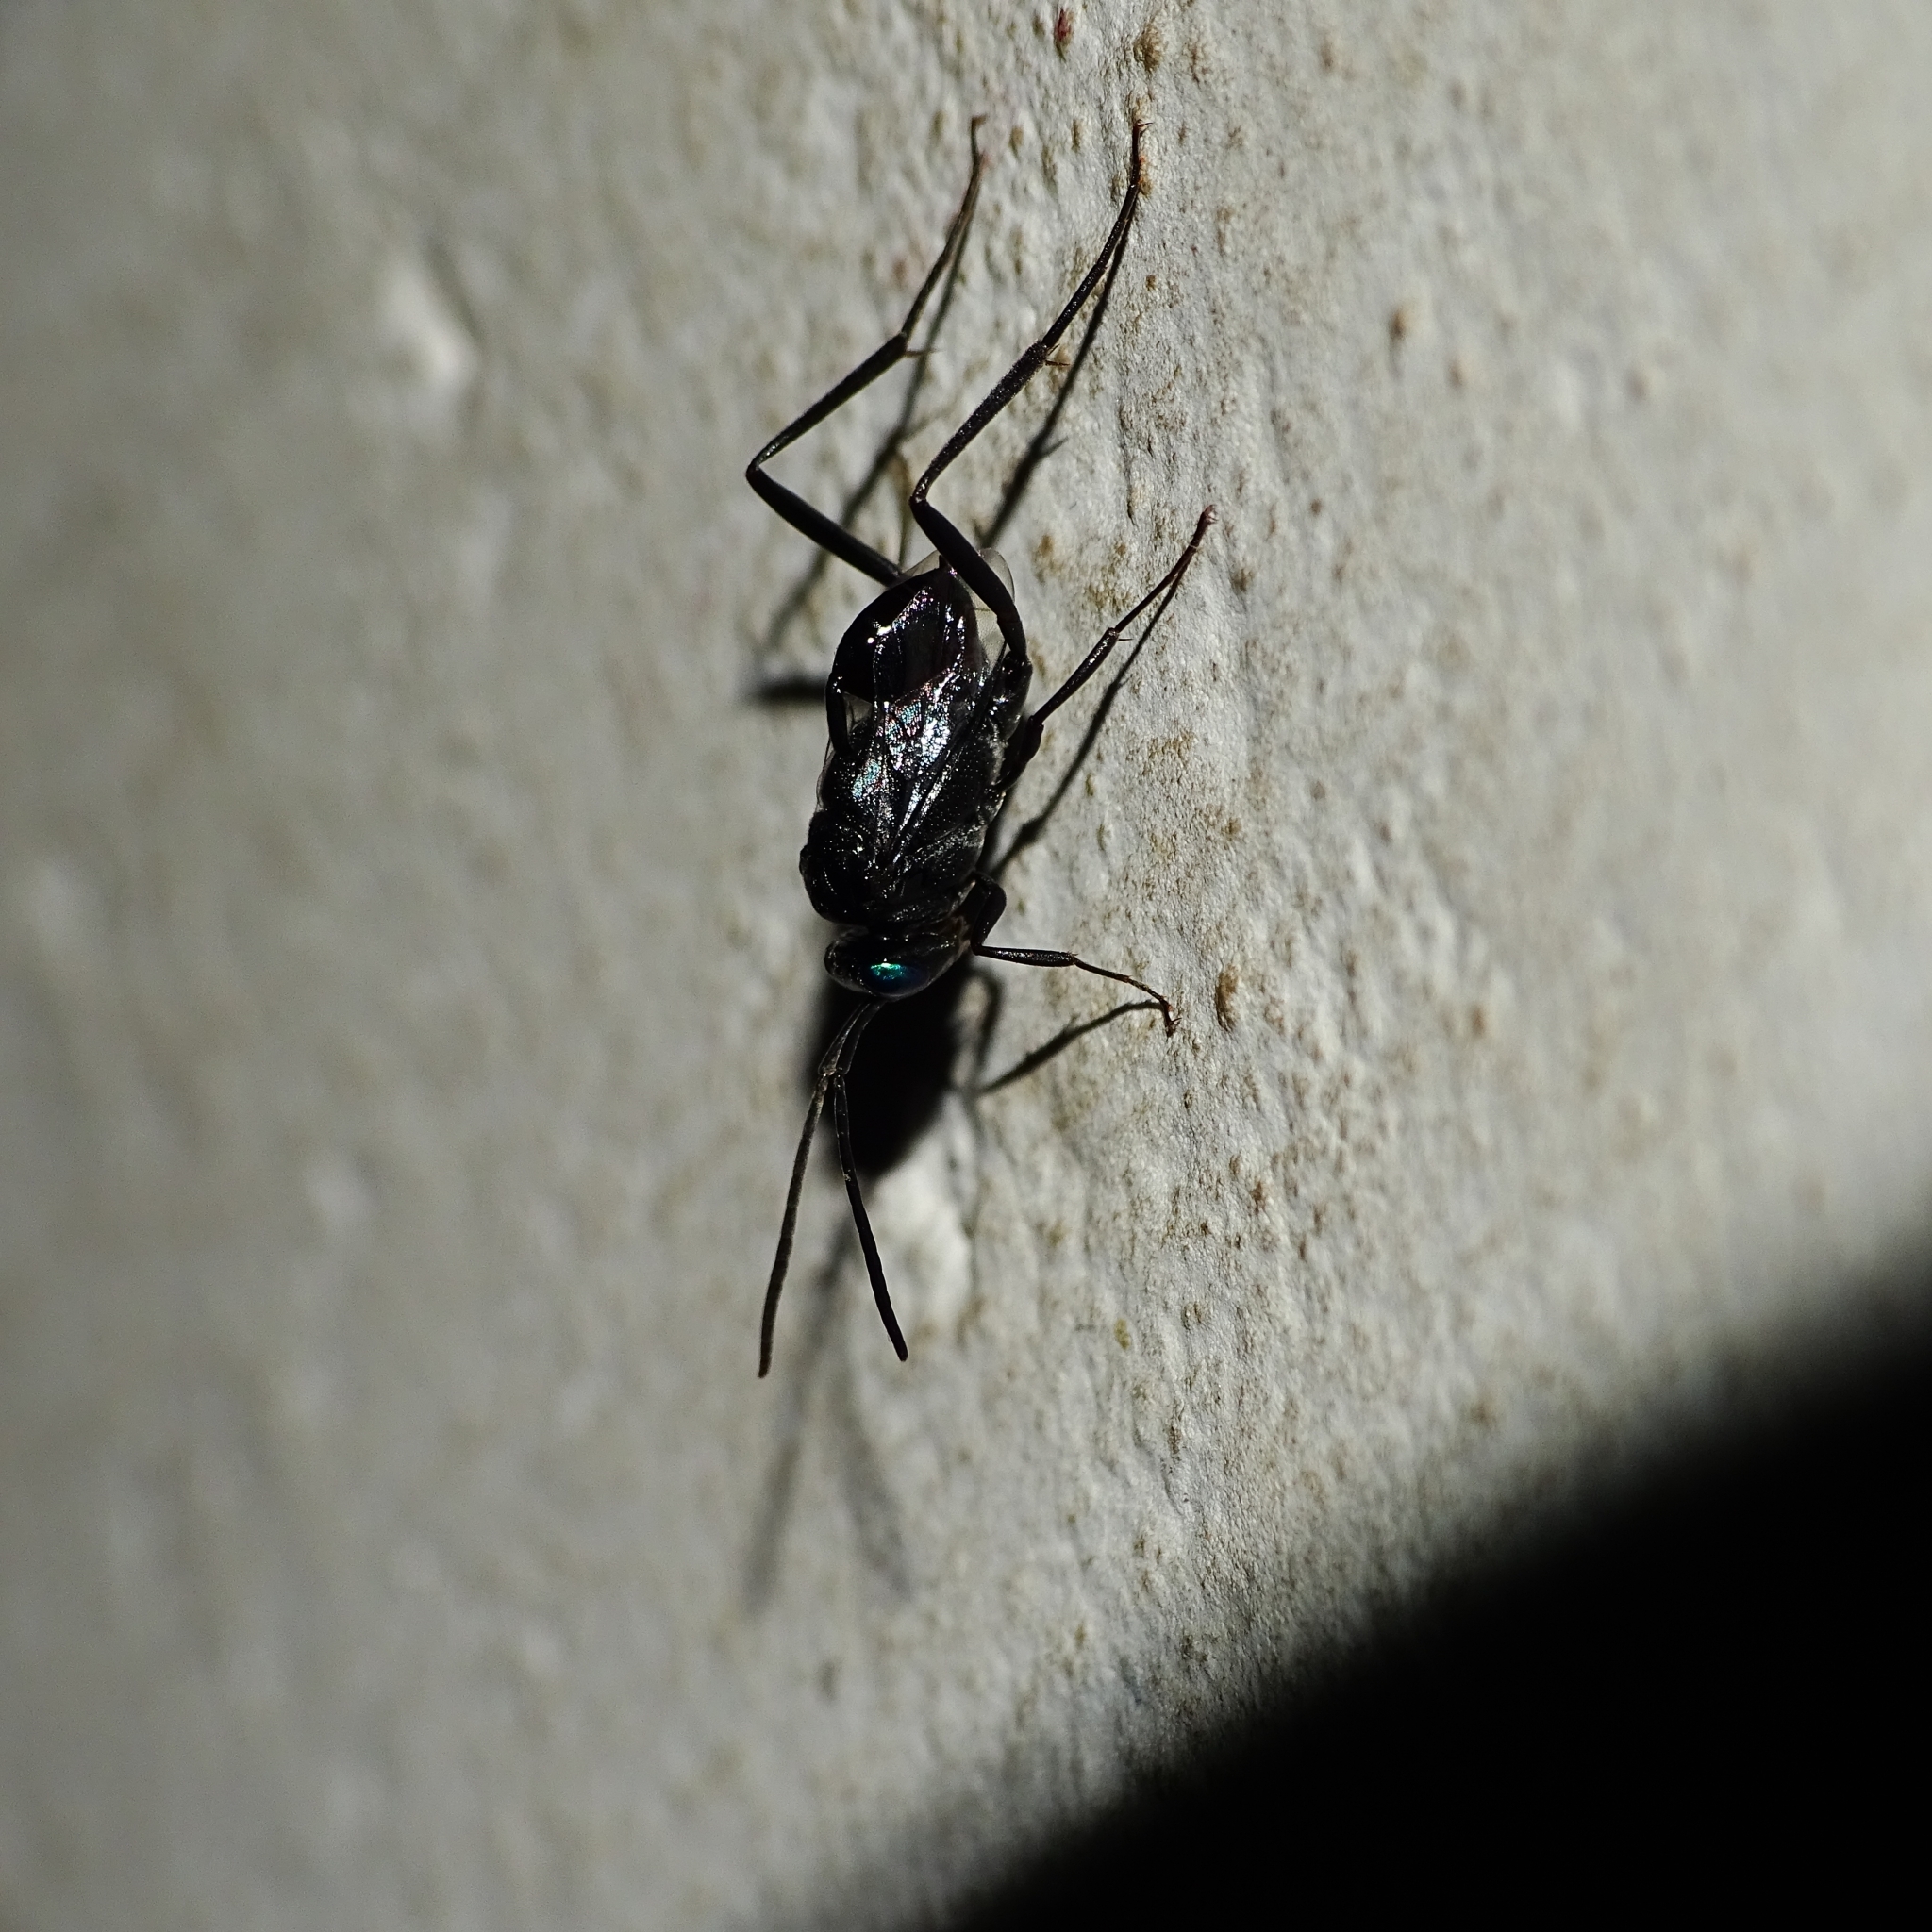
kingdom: Animalia
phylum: Arthropoda
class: Insecta
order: Hymenoptera
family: Evaniidae
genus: Evania
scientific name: Evania appendigaster
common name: Ensign wasp
